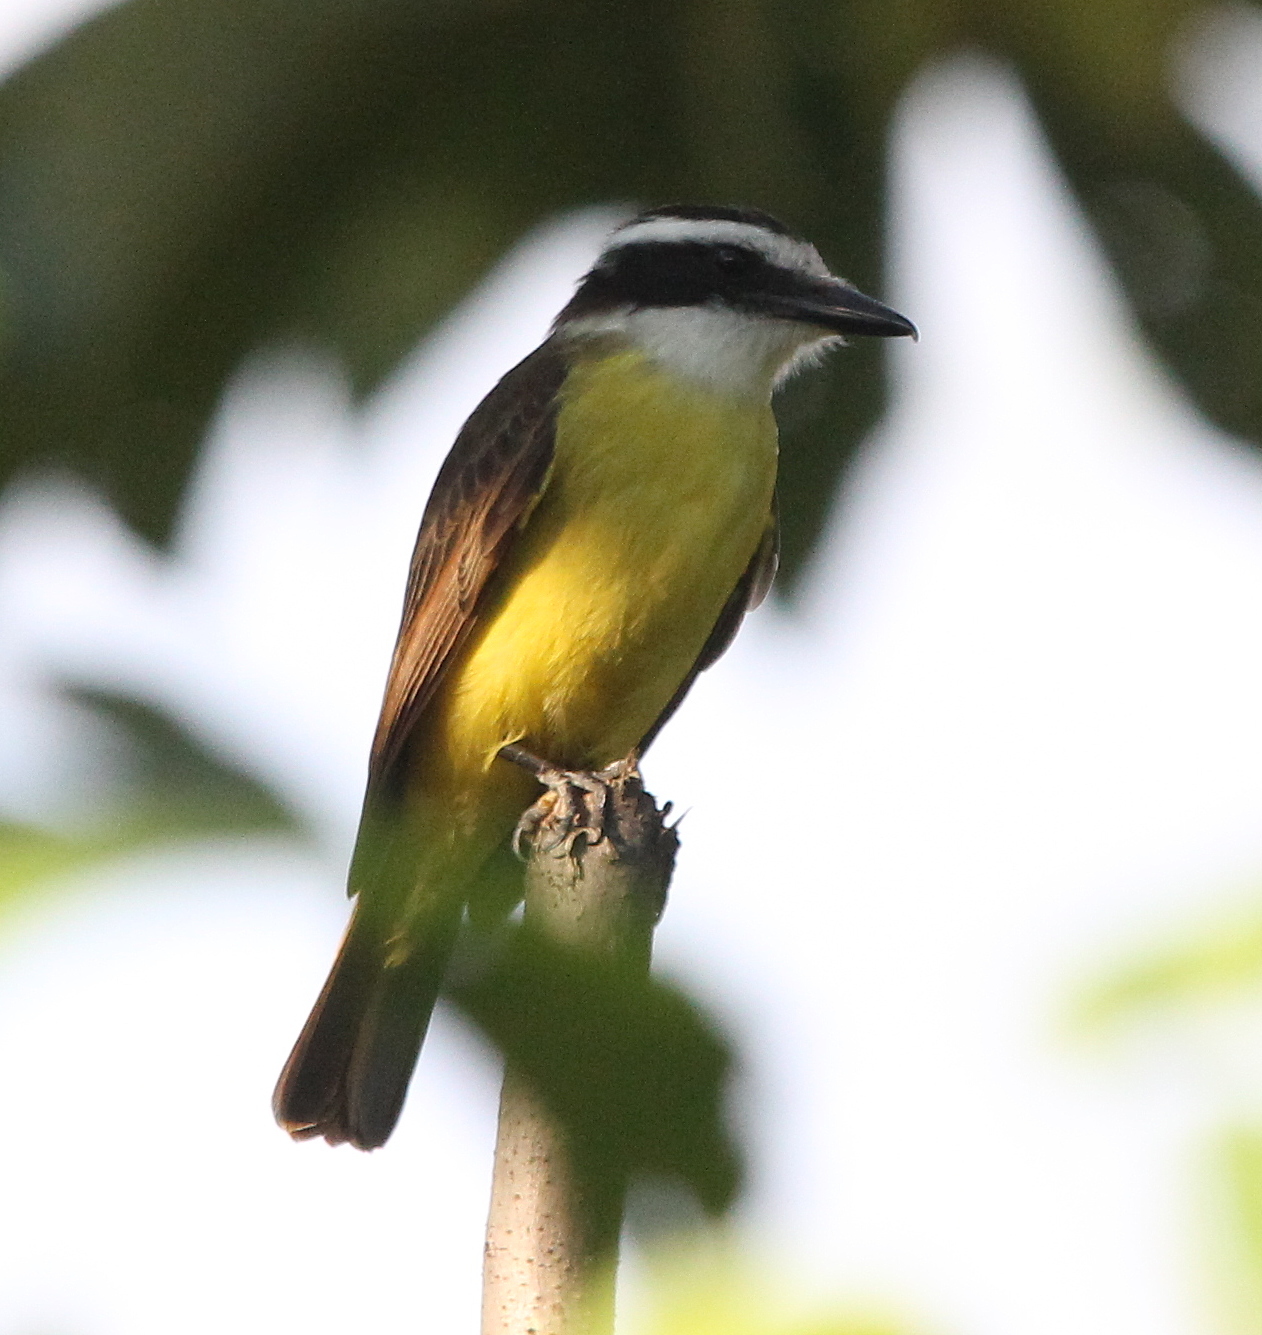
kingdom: Animalia
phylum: Chordata
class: Aves
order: Passeriformes
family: Tyrannidae
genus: Pitangus
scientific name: Pitangus sulphuratus
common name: Great kiskadee
